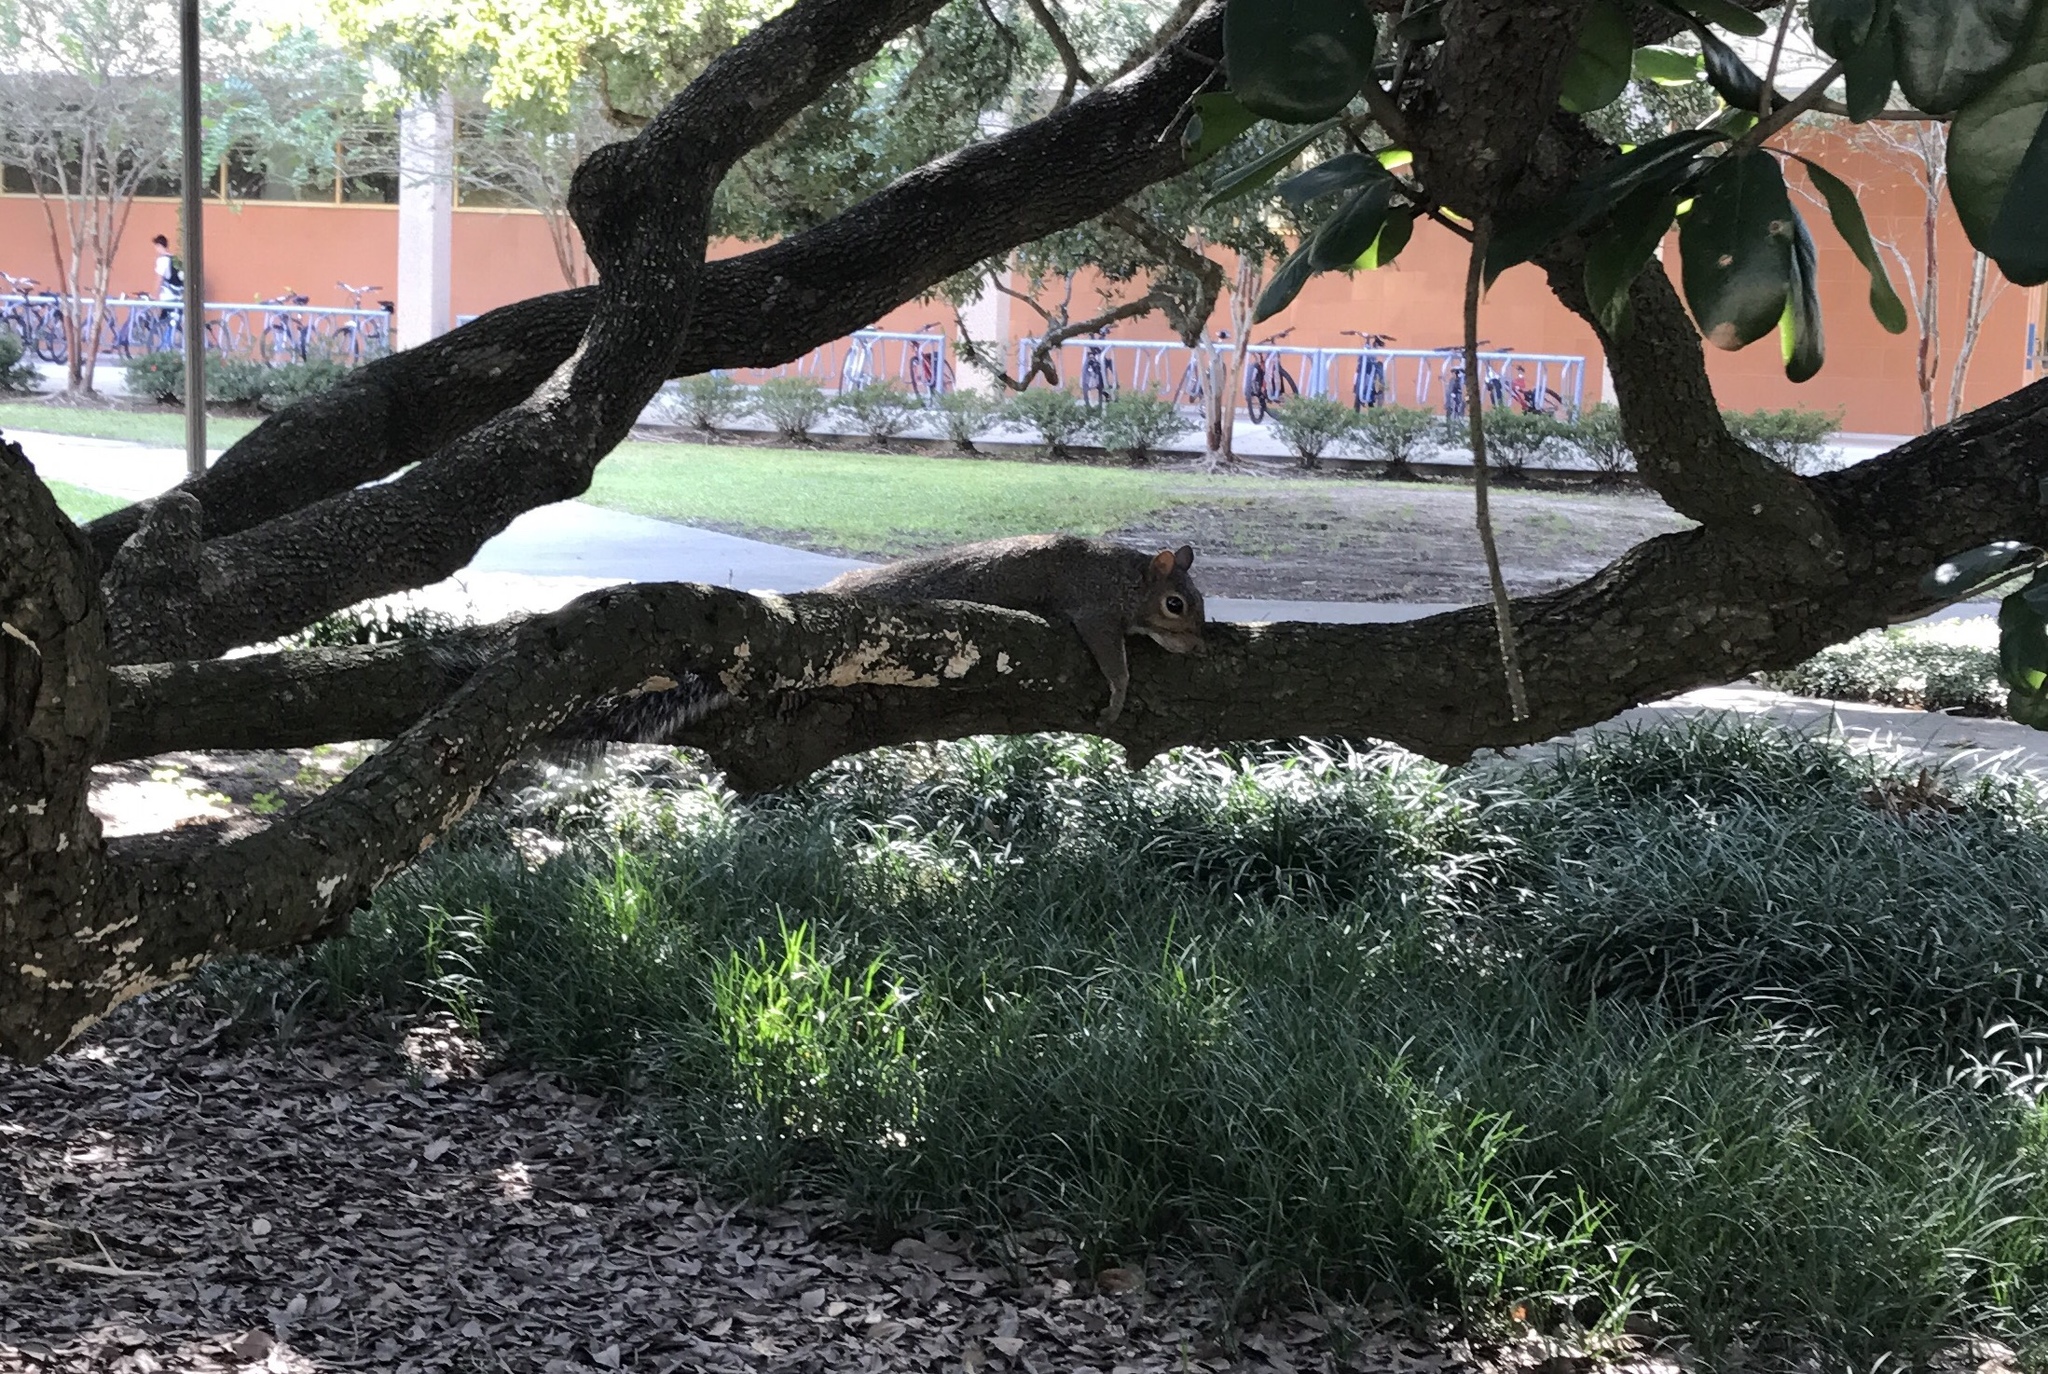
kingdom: Animalia
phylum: Chordata
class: Mammalia
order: Rodentia
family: Sciuridae
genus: Sciurus
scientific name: Sciurus carolinensis
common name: Eastern gray squirrel
